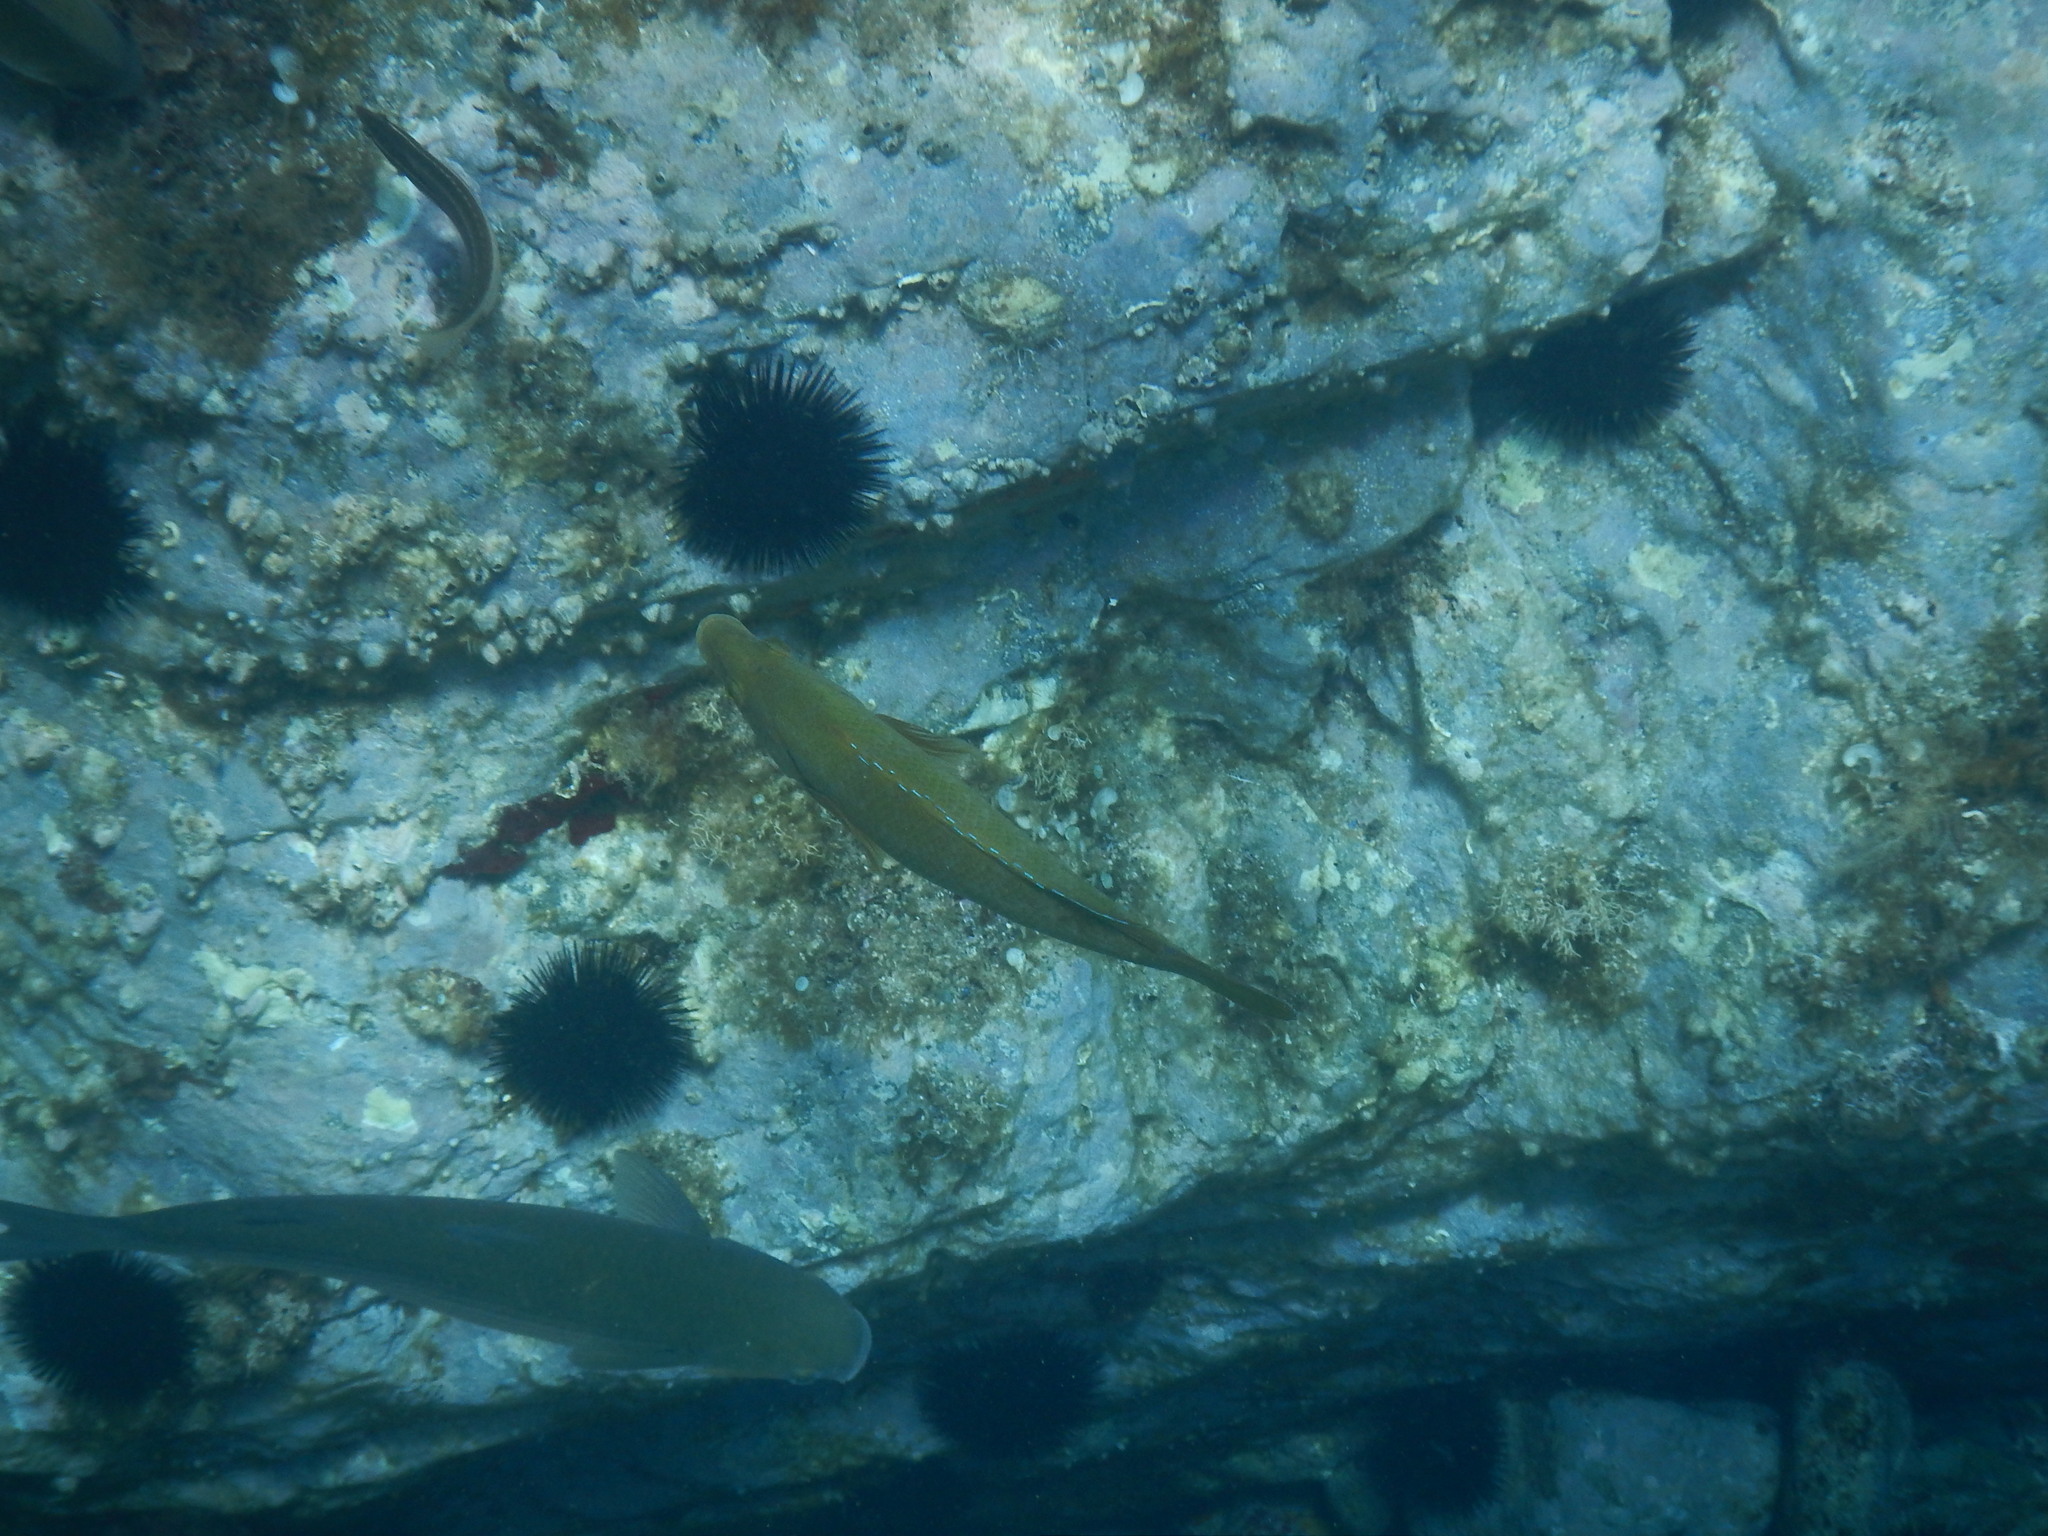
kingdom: Animalia
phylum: Chordata
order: Perciformes
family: Labridae
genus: Labrus
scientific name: Labrus merula
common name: Brown wrasse
